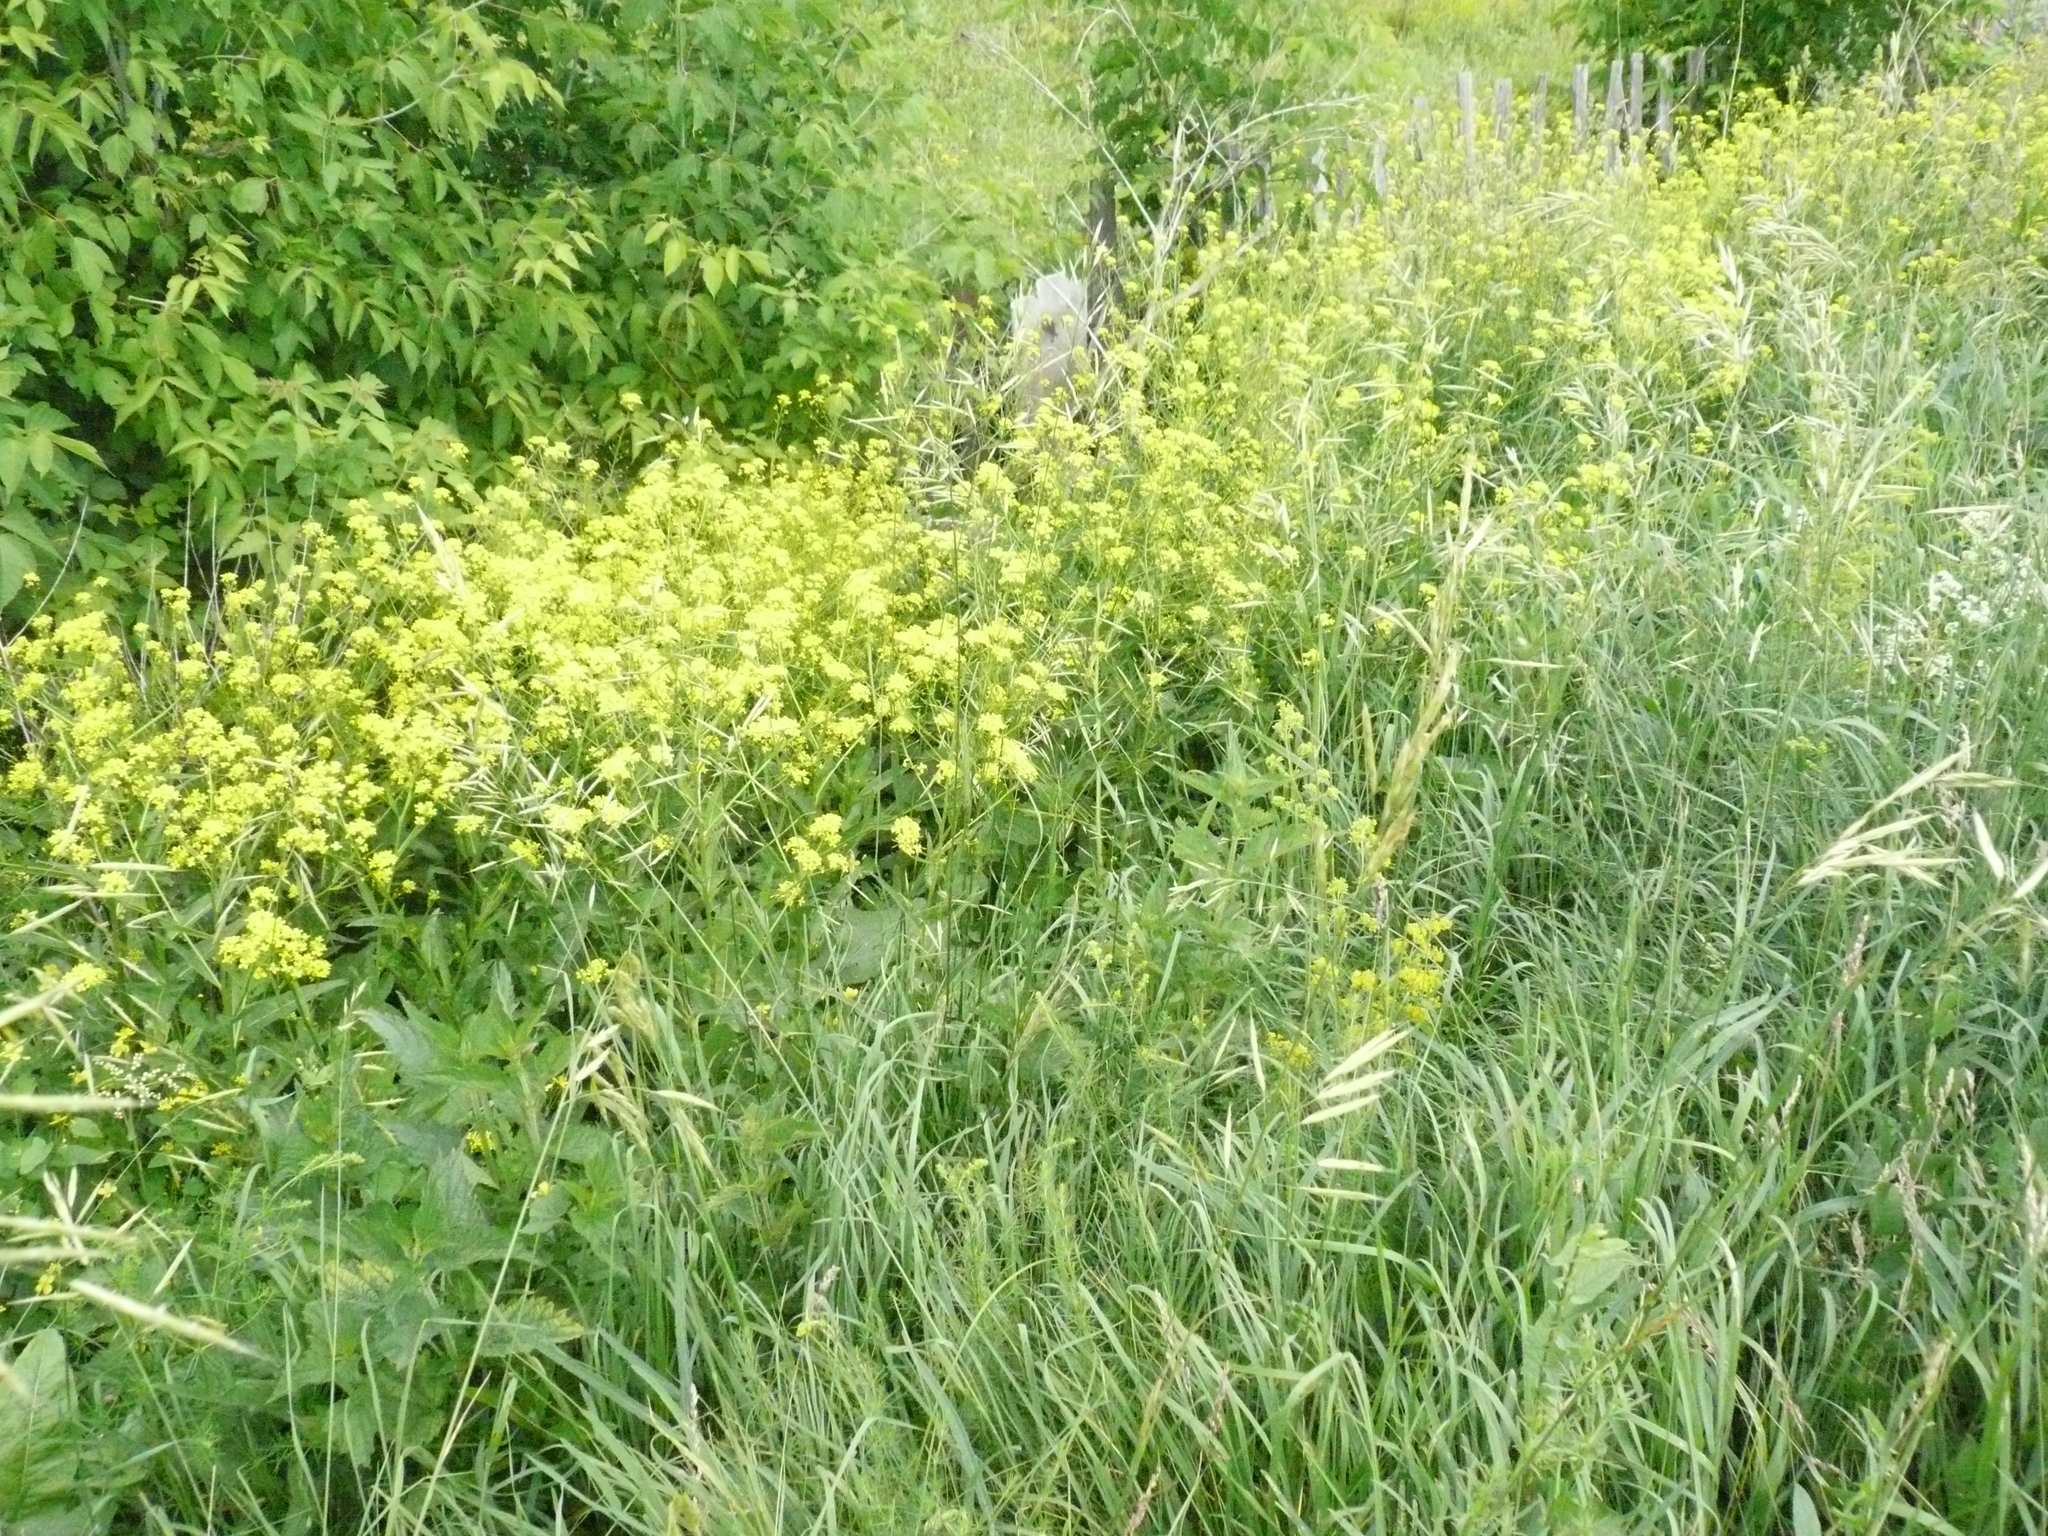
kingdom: Plantae
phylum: Tracheophyta
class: Magnoliopsida
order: Brassicales
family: Brassicaceae
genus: Bunias
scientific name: Bunias orientalis
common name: Warty-cabbage
